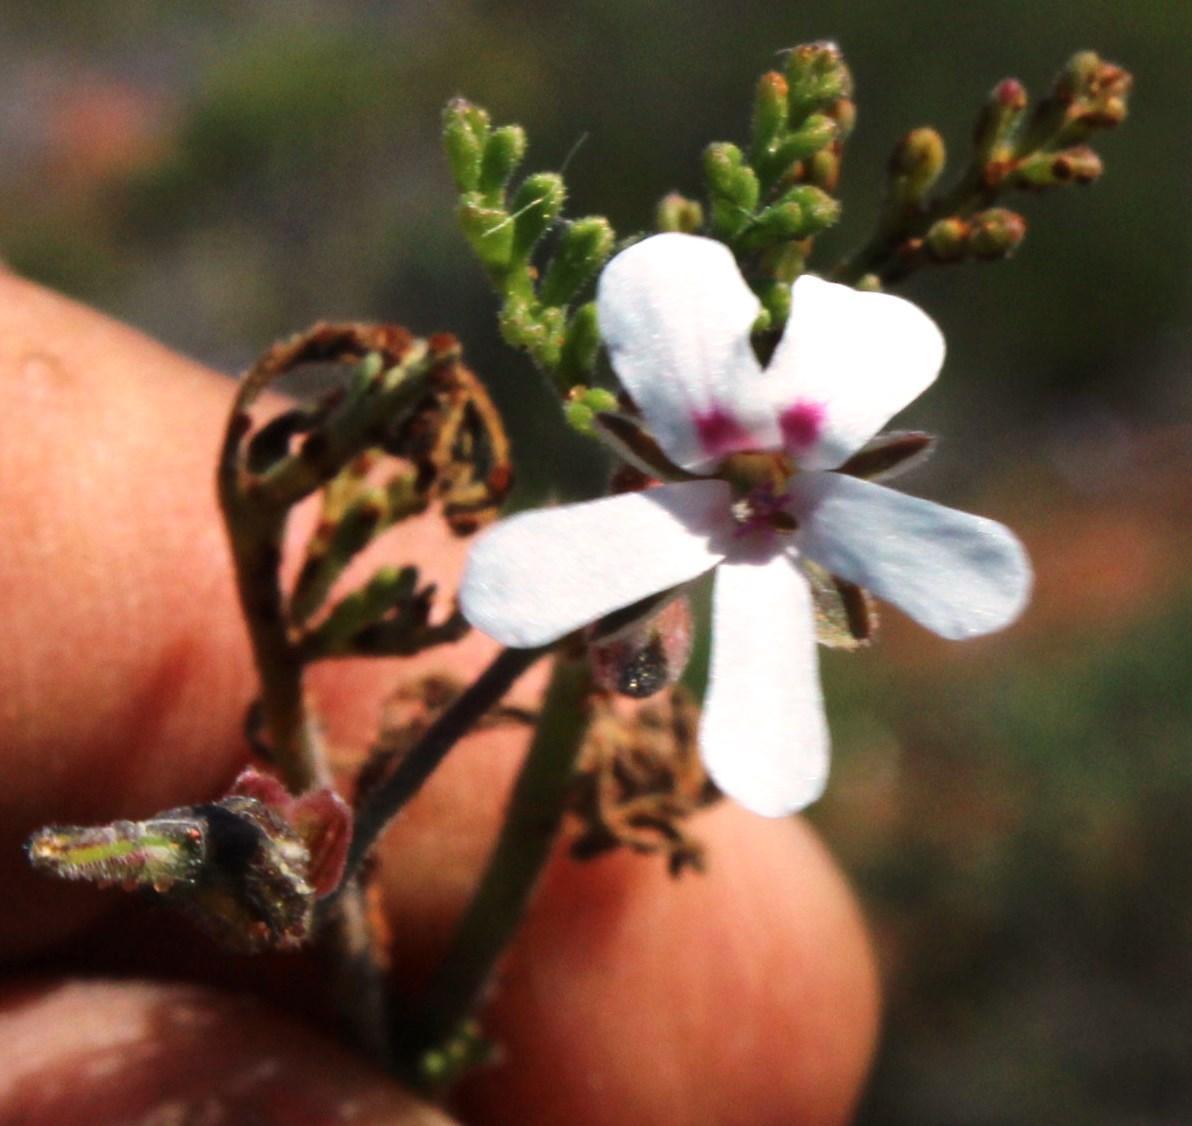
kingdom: Plantae
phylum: Tracheophyta
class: Magnoliopsida
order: Geraniales
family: Geraniaceae
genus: Pelargonium
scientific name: Pelargonium senecioides
